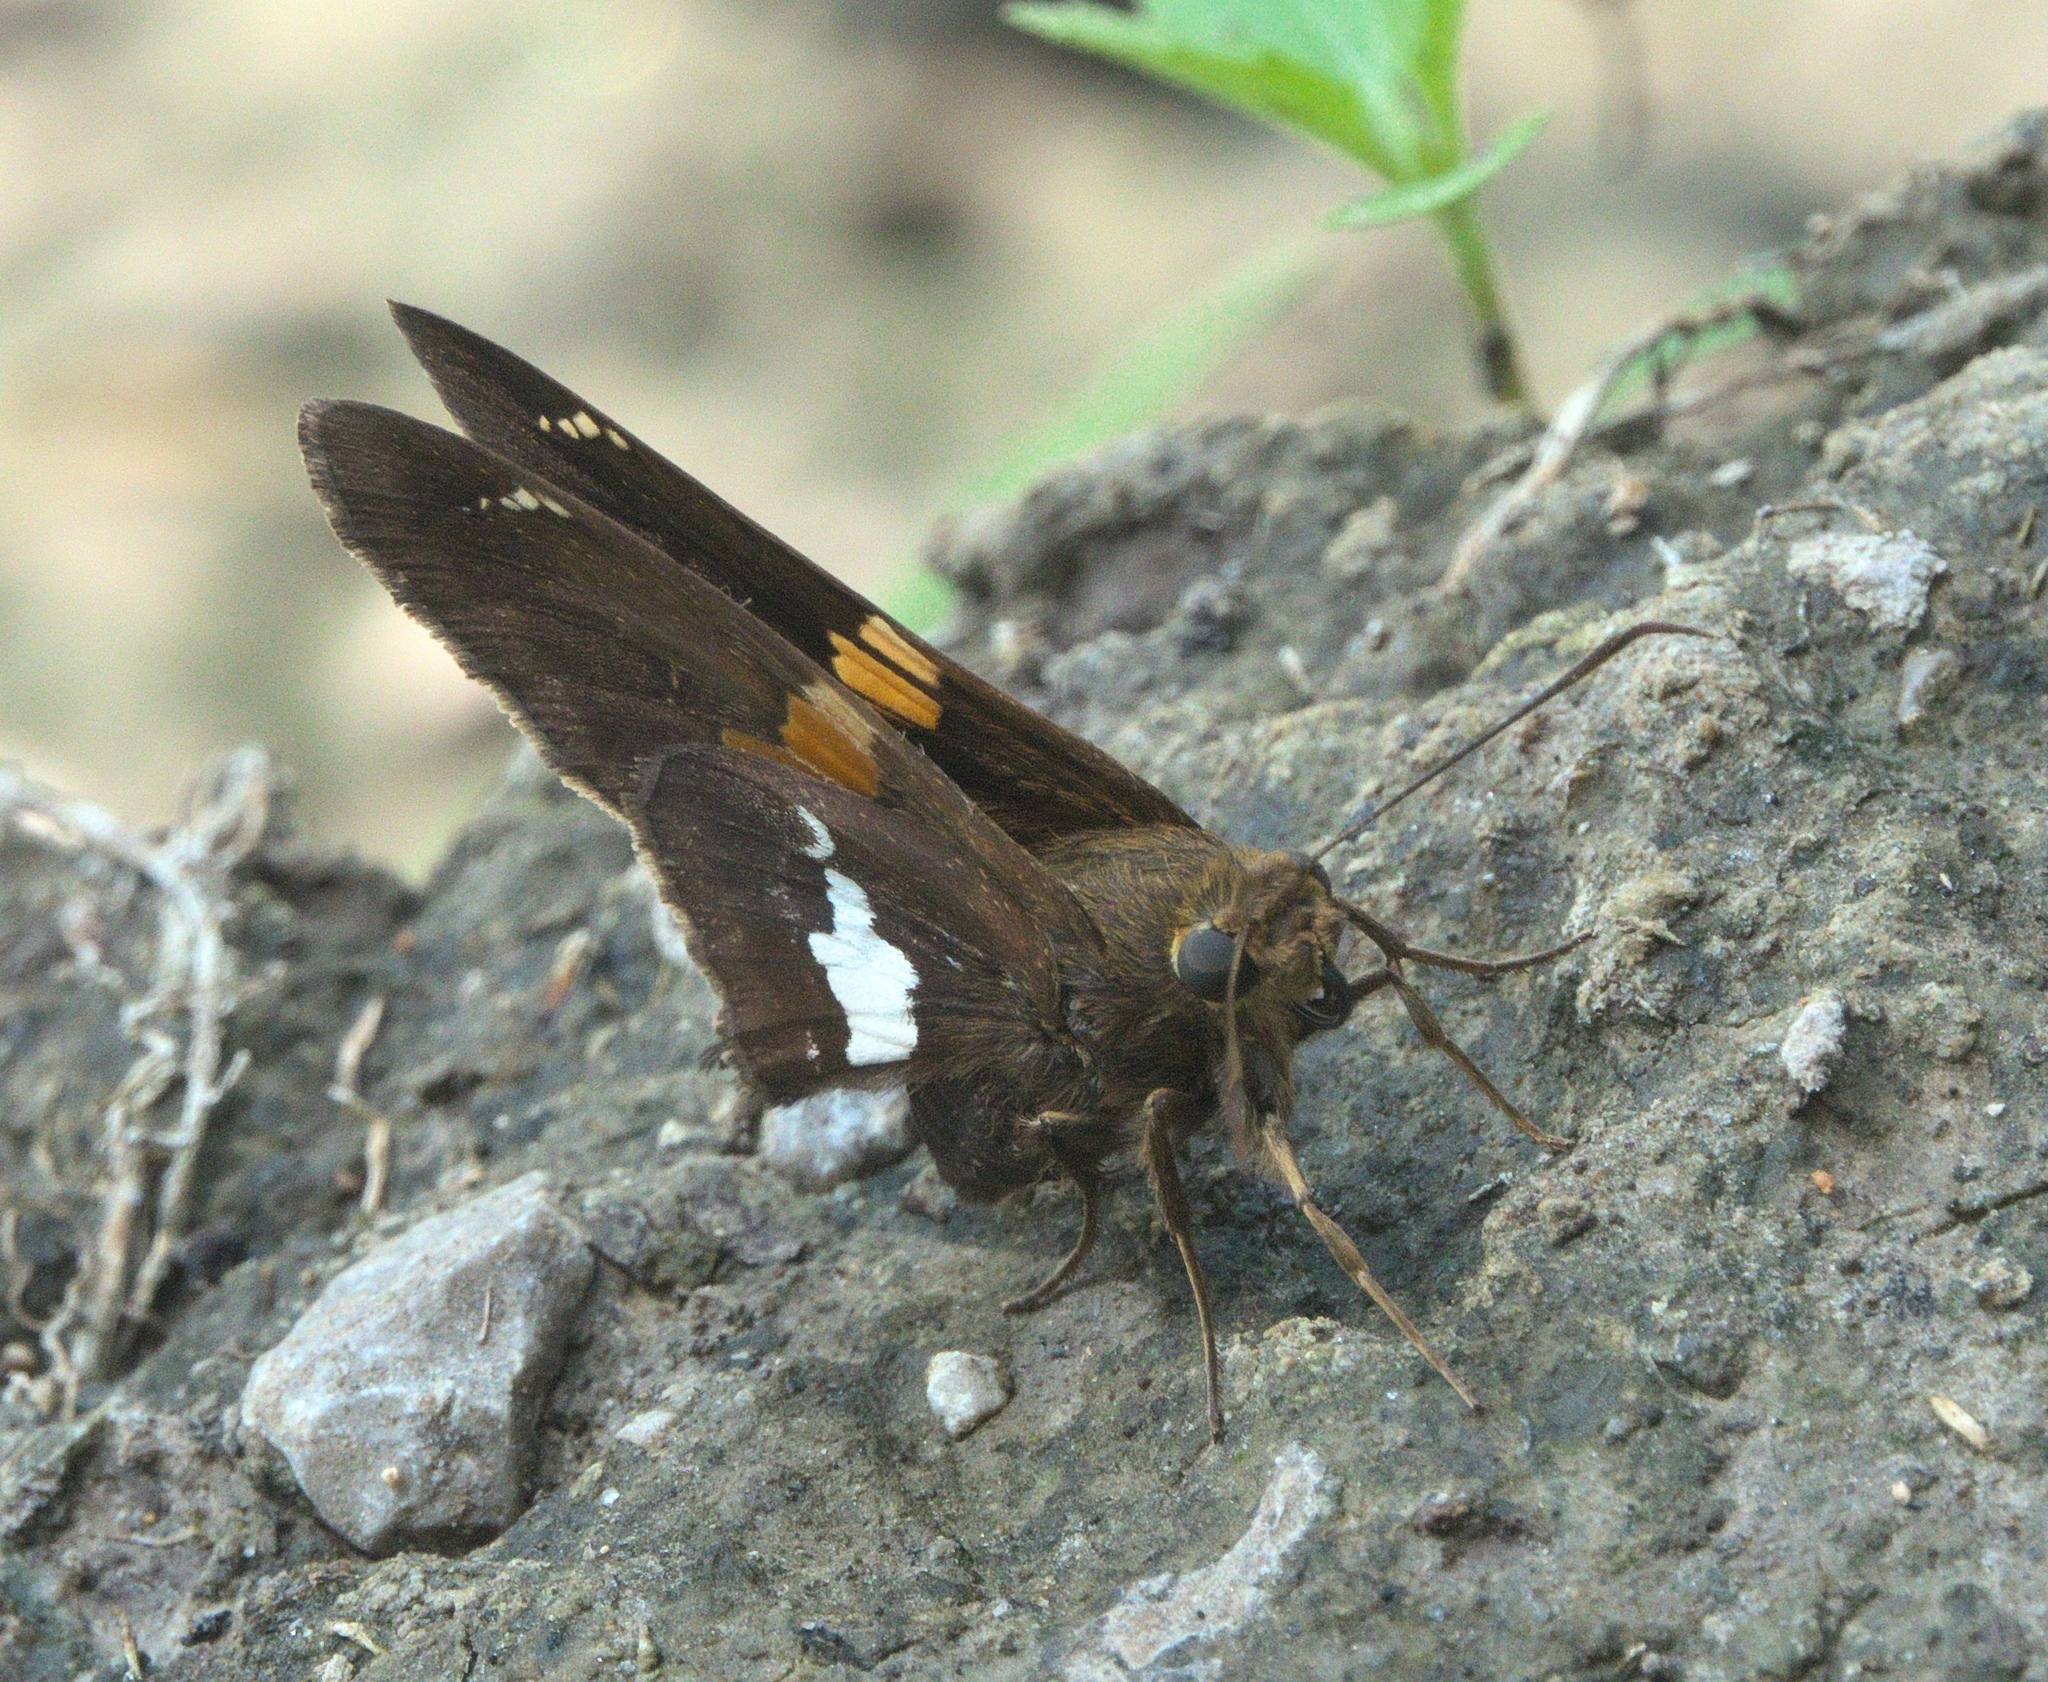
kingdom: Animalia
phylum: Arthropoda
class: Insecta
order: Lepidoptera
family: Hesperiidae
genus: Epargyreus
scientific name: Epargyreus clarus
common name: Silver-spotted skipper
